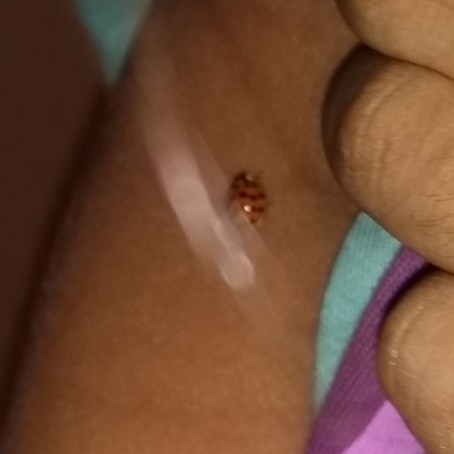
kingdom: Animalia
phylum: Arthropoda
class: Insecta
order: Coleoptera
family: Coccinellidae
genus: Harmonia
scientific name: Harmonia axyridis
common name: Harlequin ladybird
